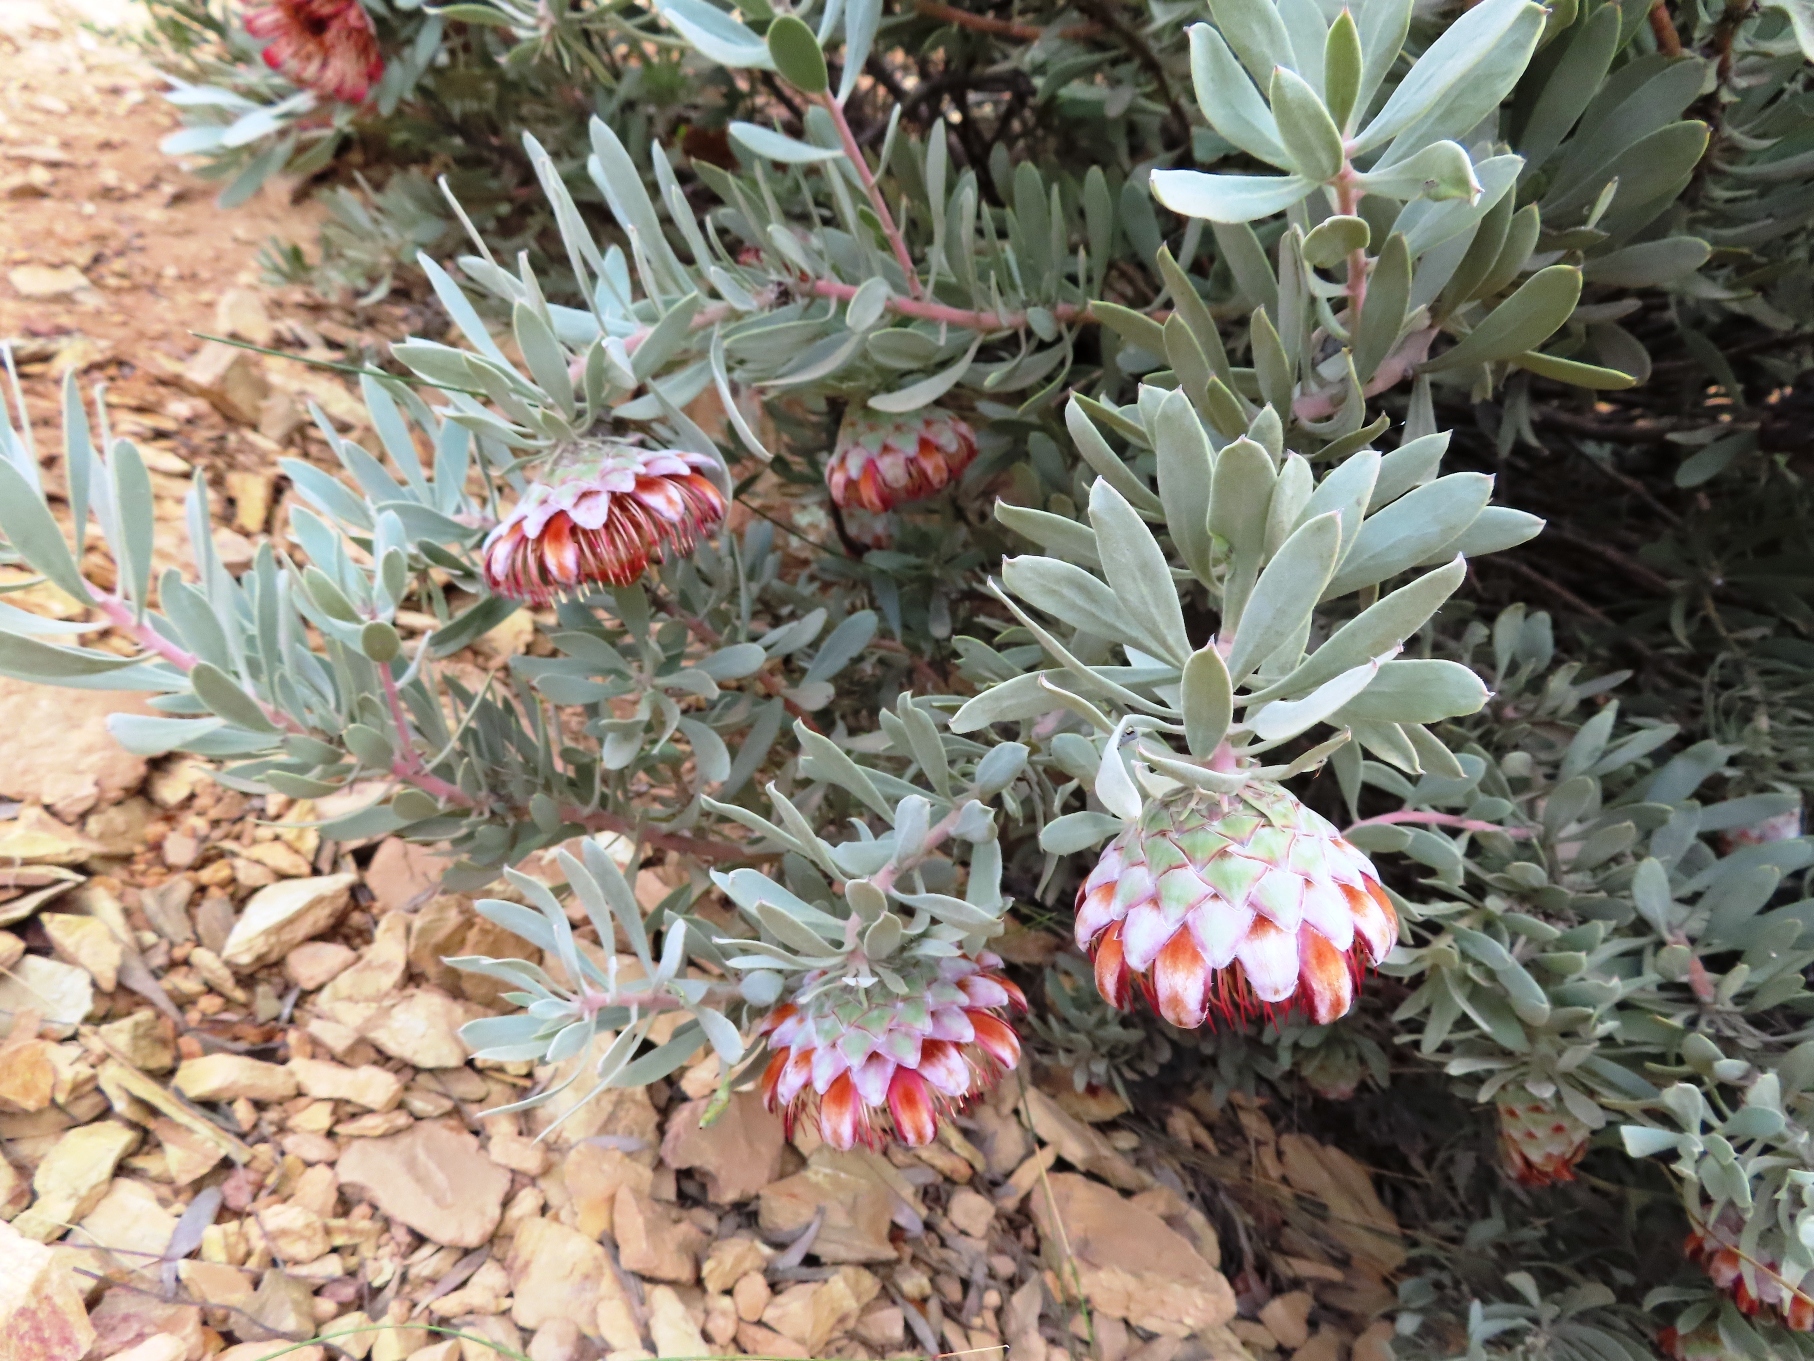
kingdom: Plantae
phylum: Tracheophyta
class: Magnoliopsida
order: Proteales
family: Proteaceae
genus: Protea
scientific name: Protea pendula
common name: Nodding sugarbush
